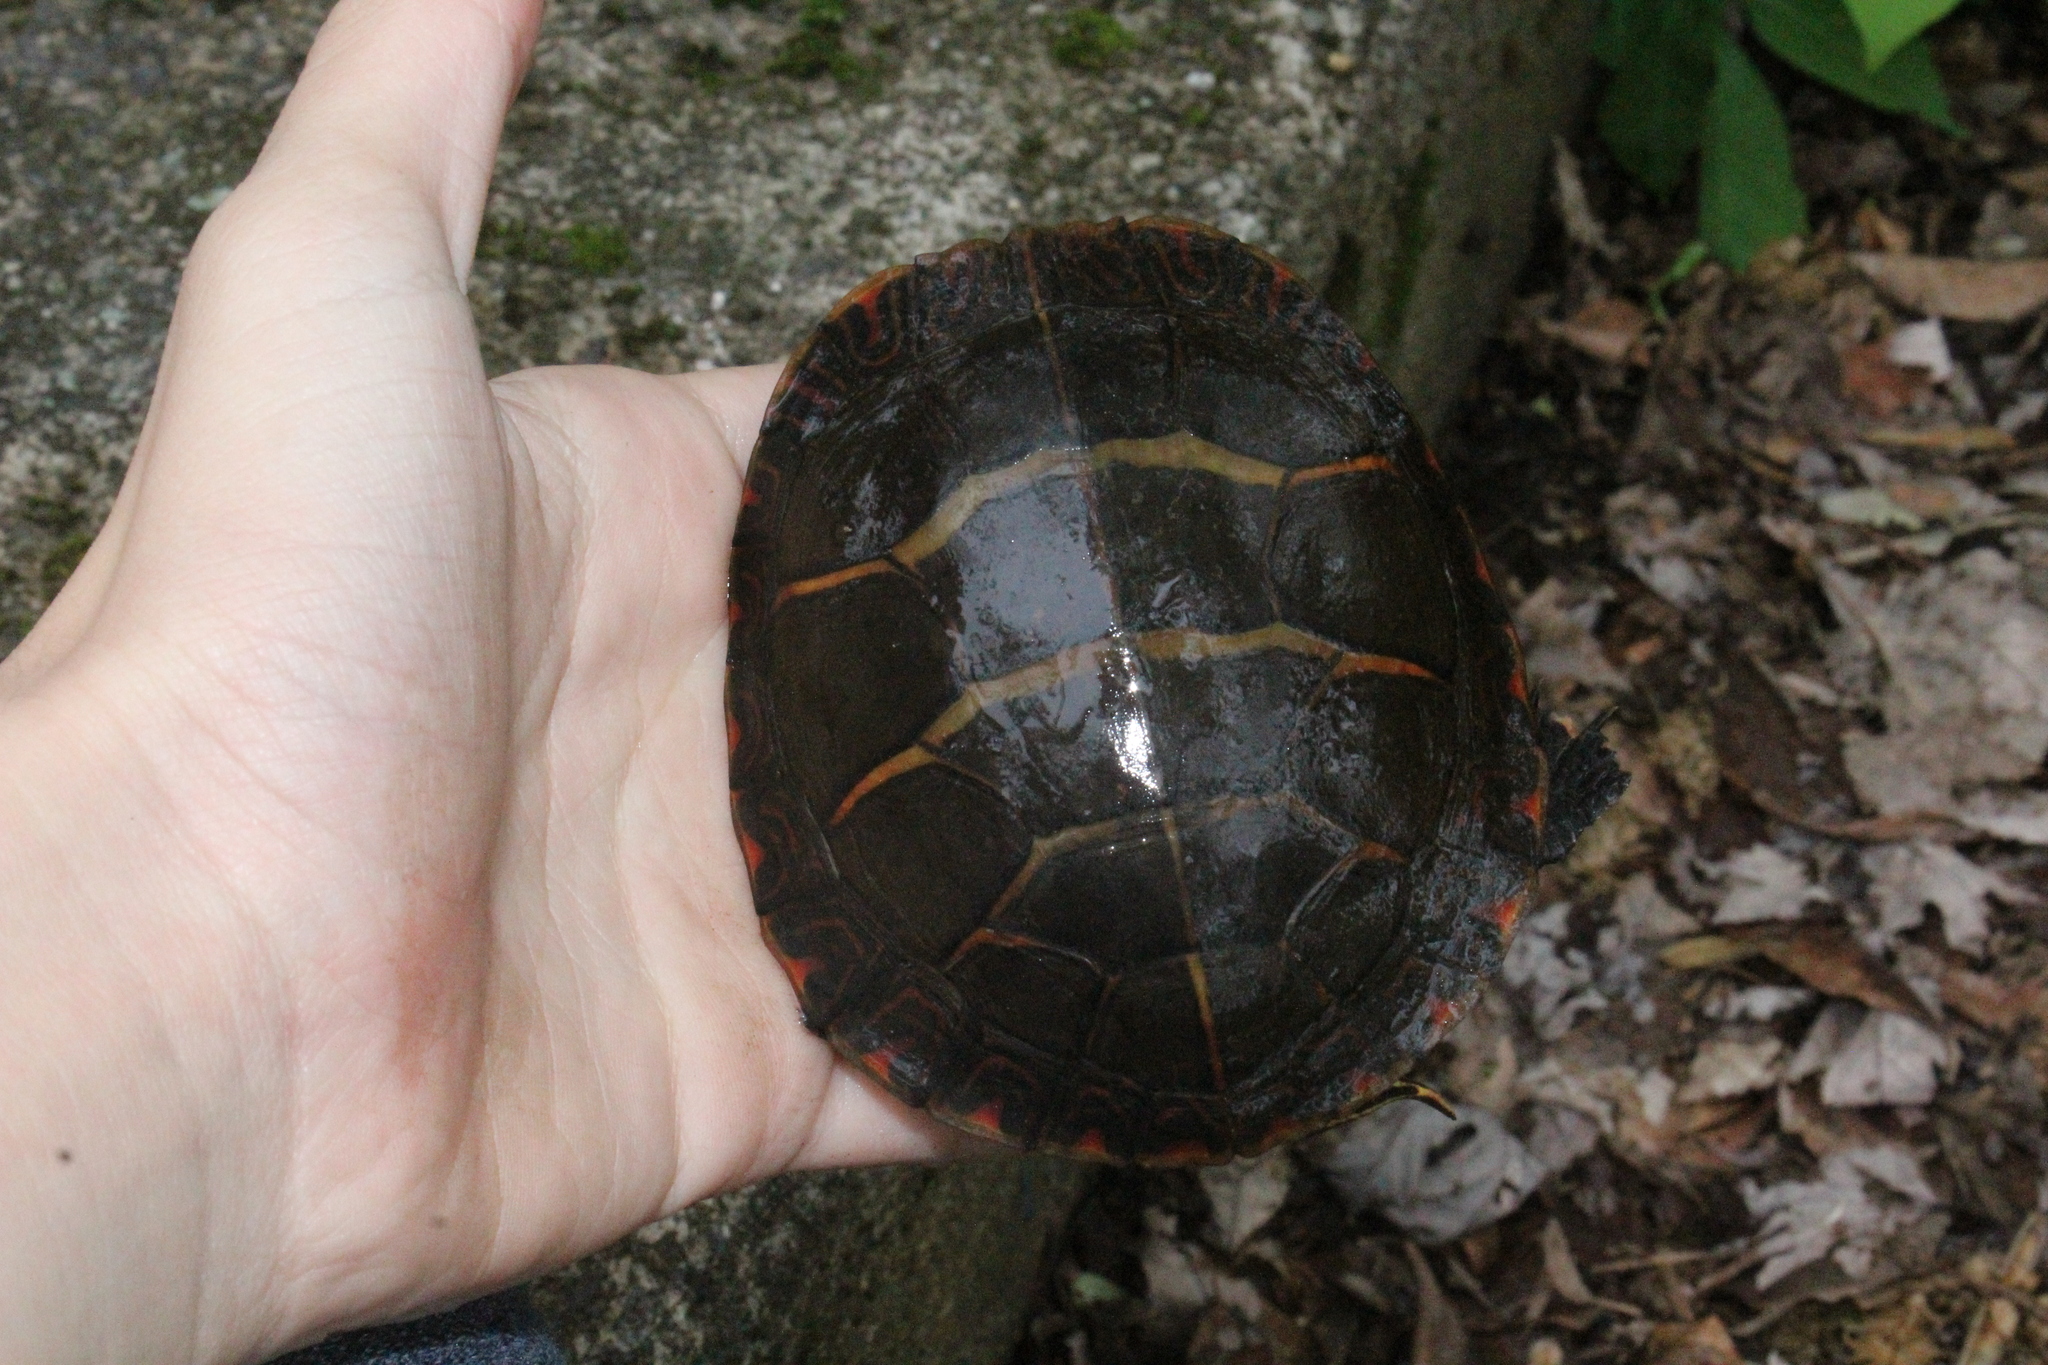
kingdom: Animalia
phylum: Chordata
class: Testudines
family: Emydidae
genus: Chrysemys
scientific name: Chrysemys picta
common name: Painted turtle
